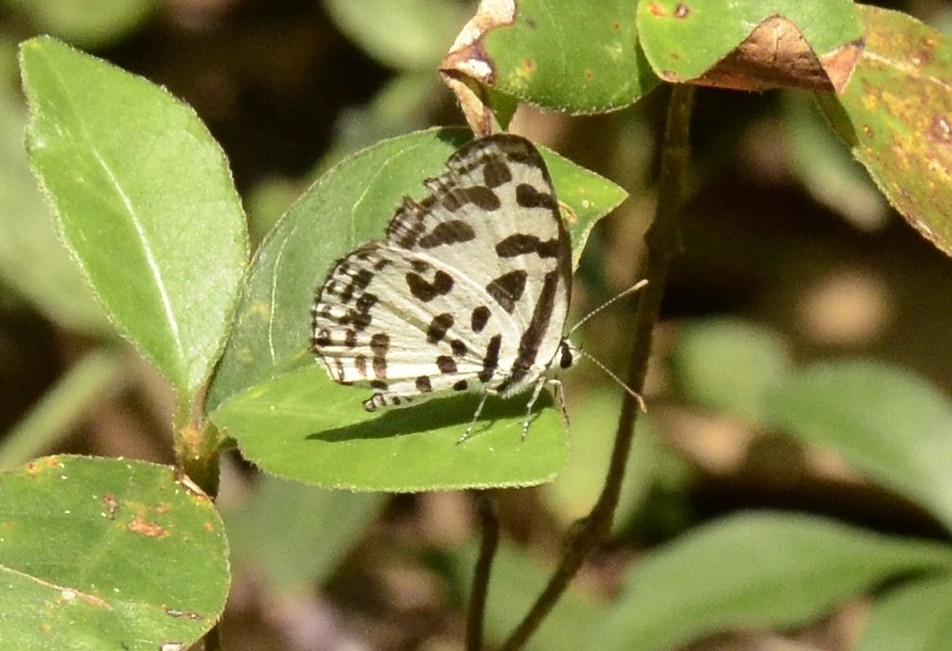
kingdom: Animalia
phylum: Arthropoda
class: Insecta
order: Lepidoptera
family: Lycaenidae
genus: Castalius
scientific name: Castalius rosimon
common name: Common pierrot
